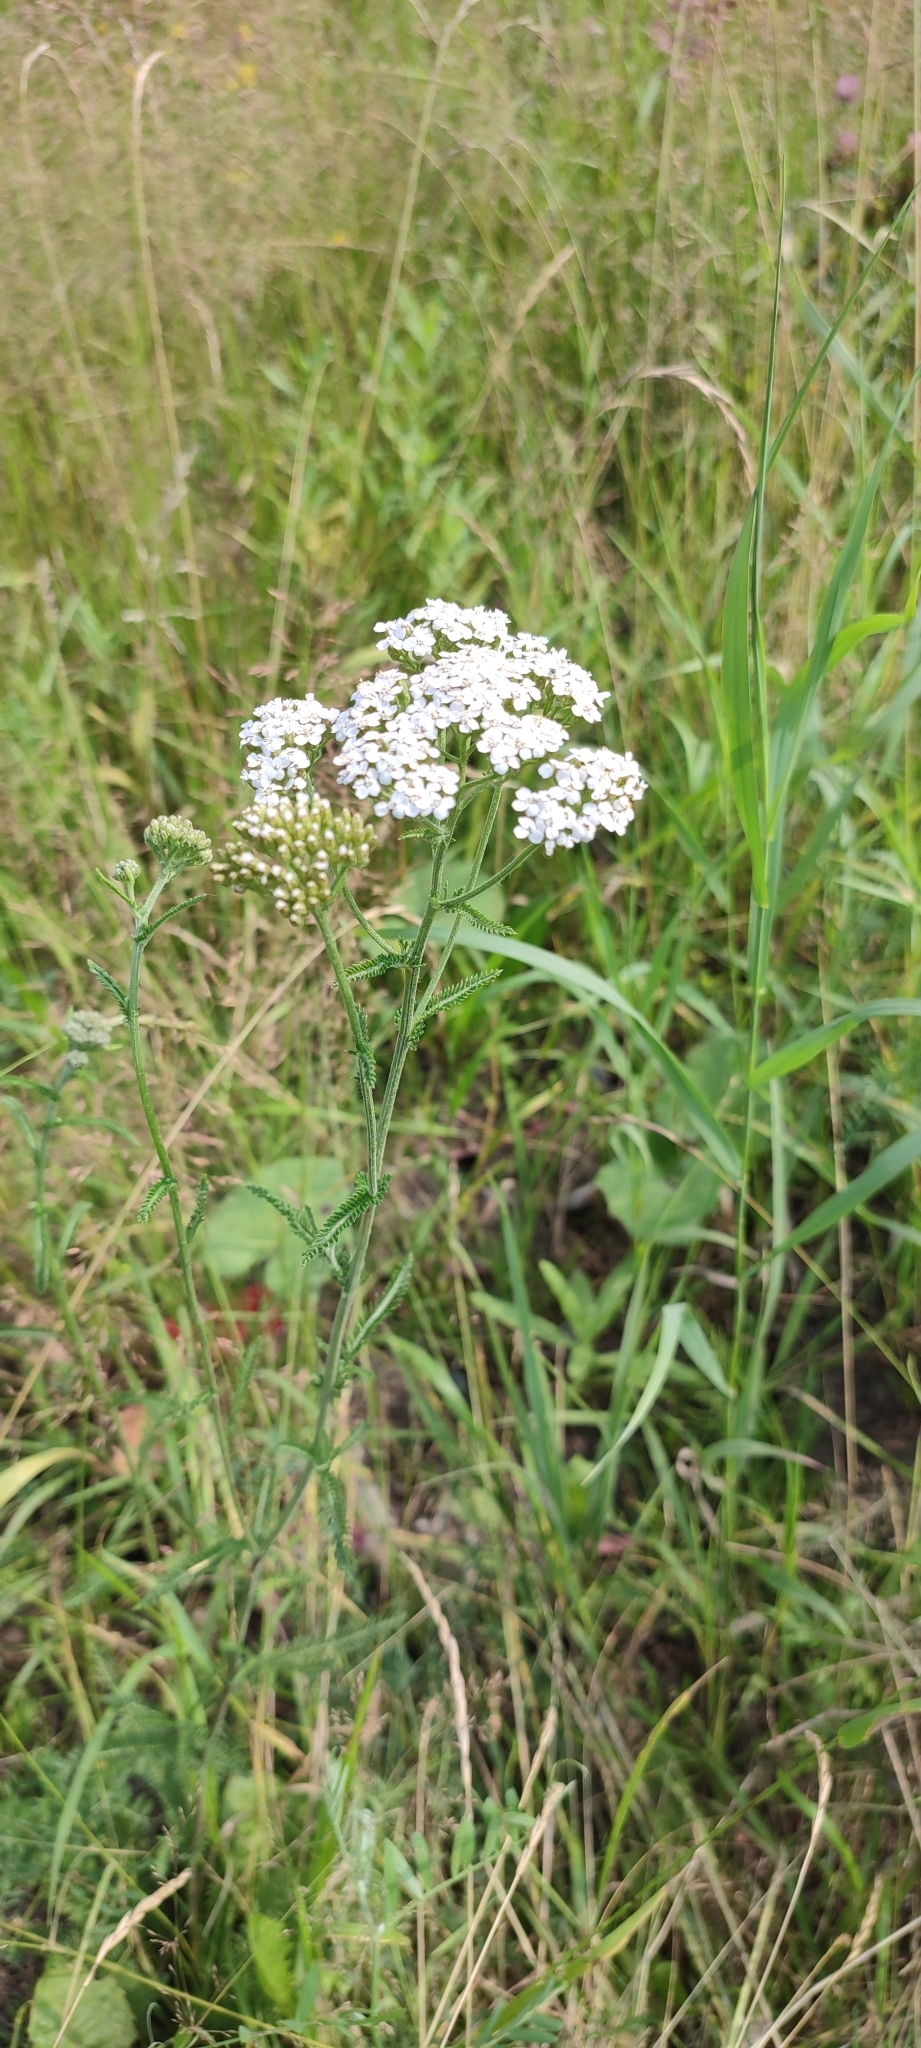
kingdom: Plantae
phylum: Tracheophyta
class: Magnoliopsida
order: Asterales
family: Asteraceae
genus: Achillea
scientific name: Achillea asiatica
